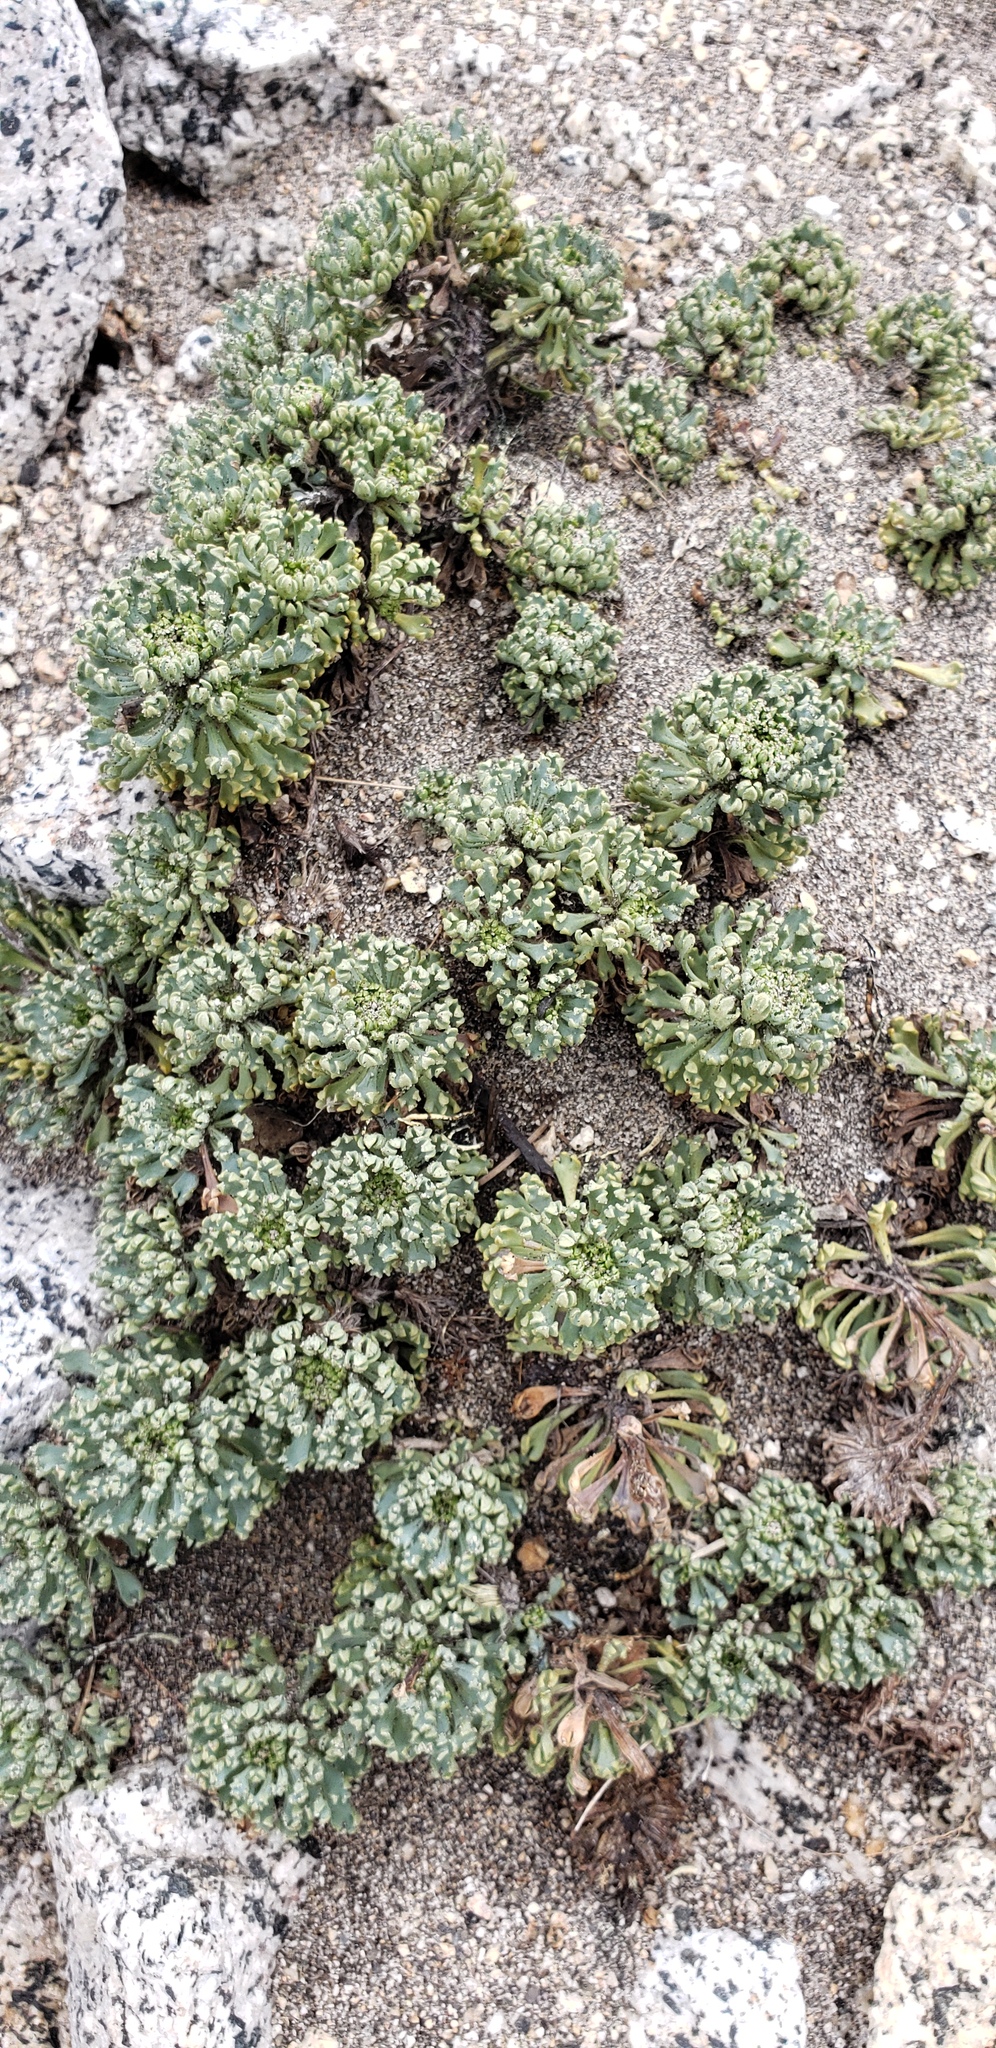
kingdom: Plantae
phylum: Tracheophyta
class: Magnoliopsida
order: Asterales
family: Calyceraceae
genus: Moschopsis
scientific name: Moschopsis caleofuensis
